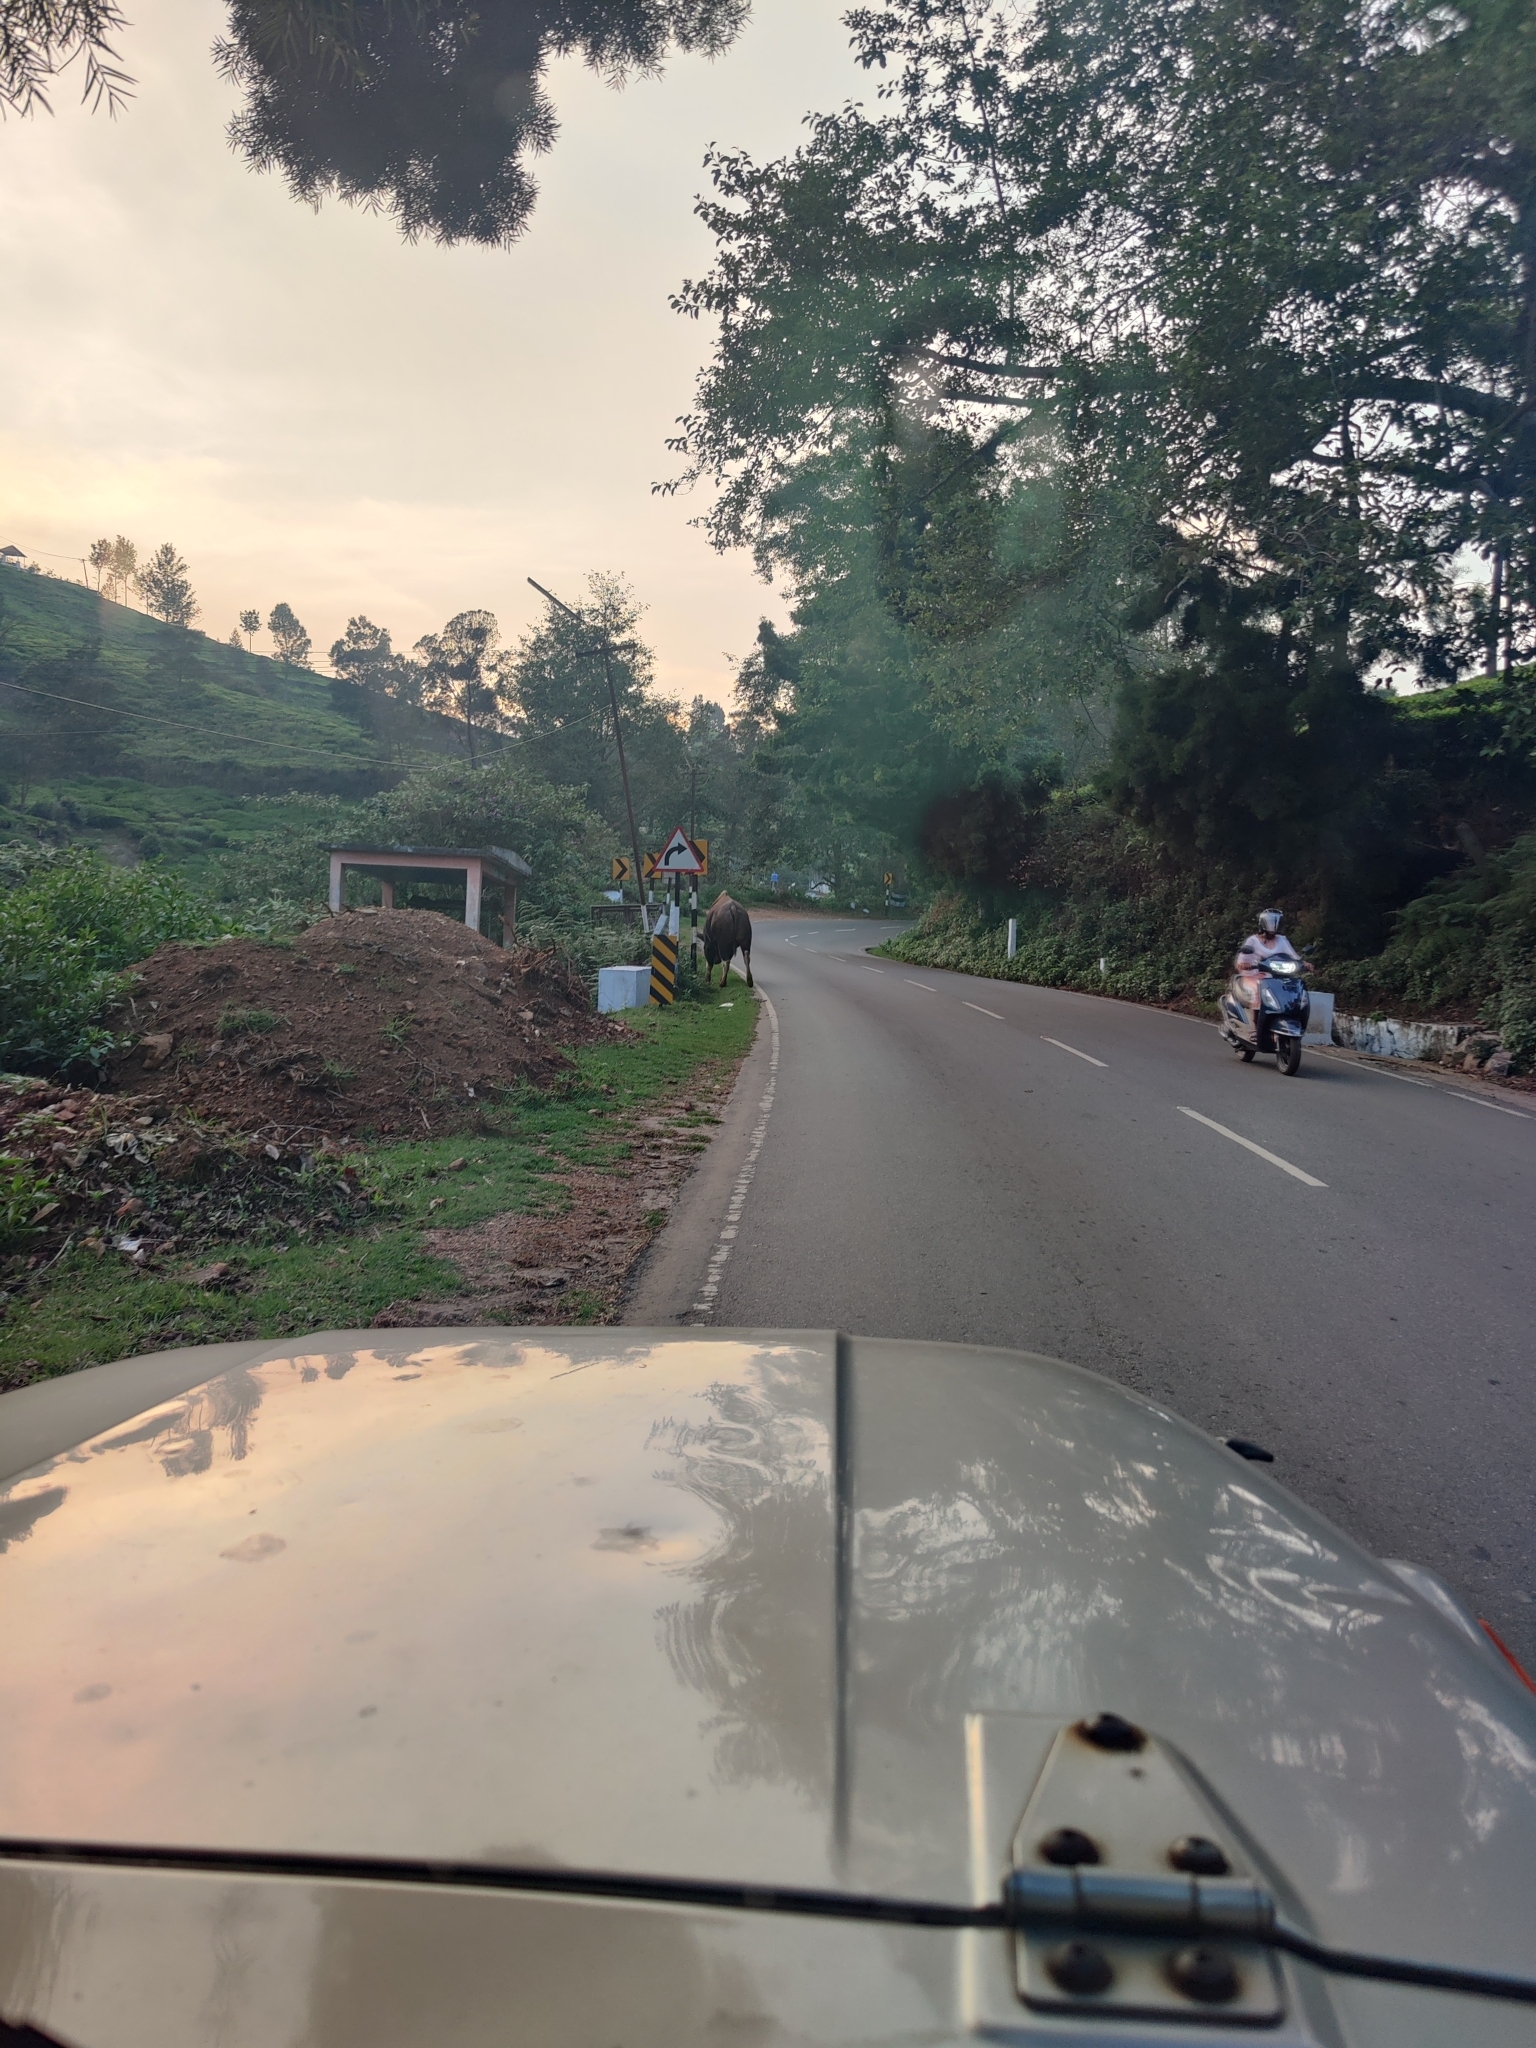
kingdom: Animalia
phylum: Chordata
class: Mammalia
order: Artiodactyla
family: Bovidae
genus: Bos
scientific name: Bos frontalis
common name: Gaur
